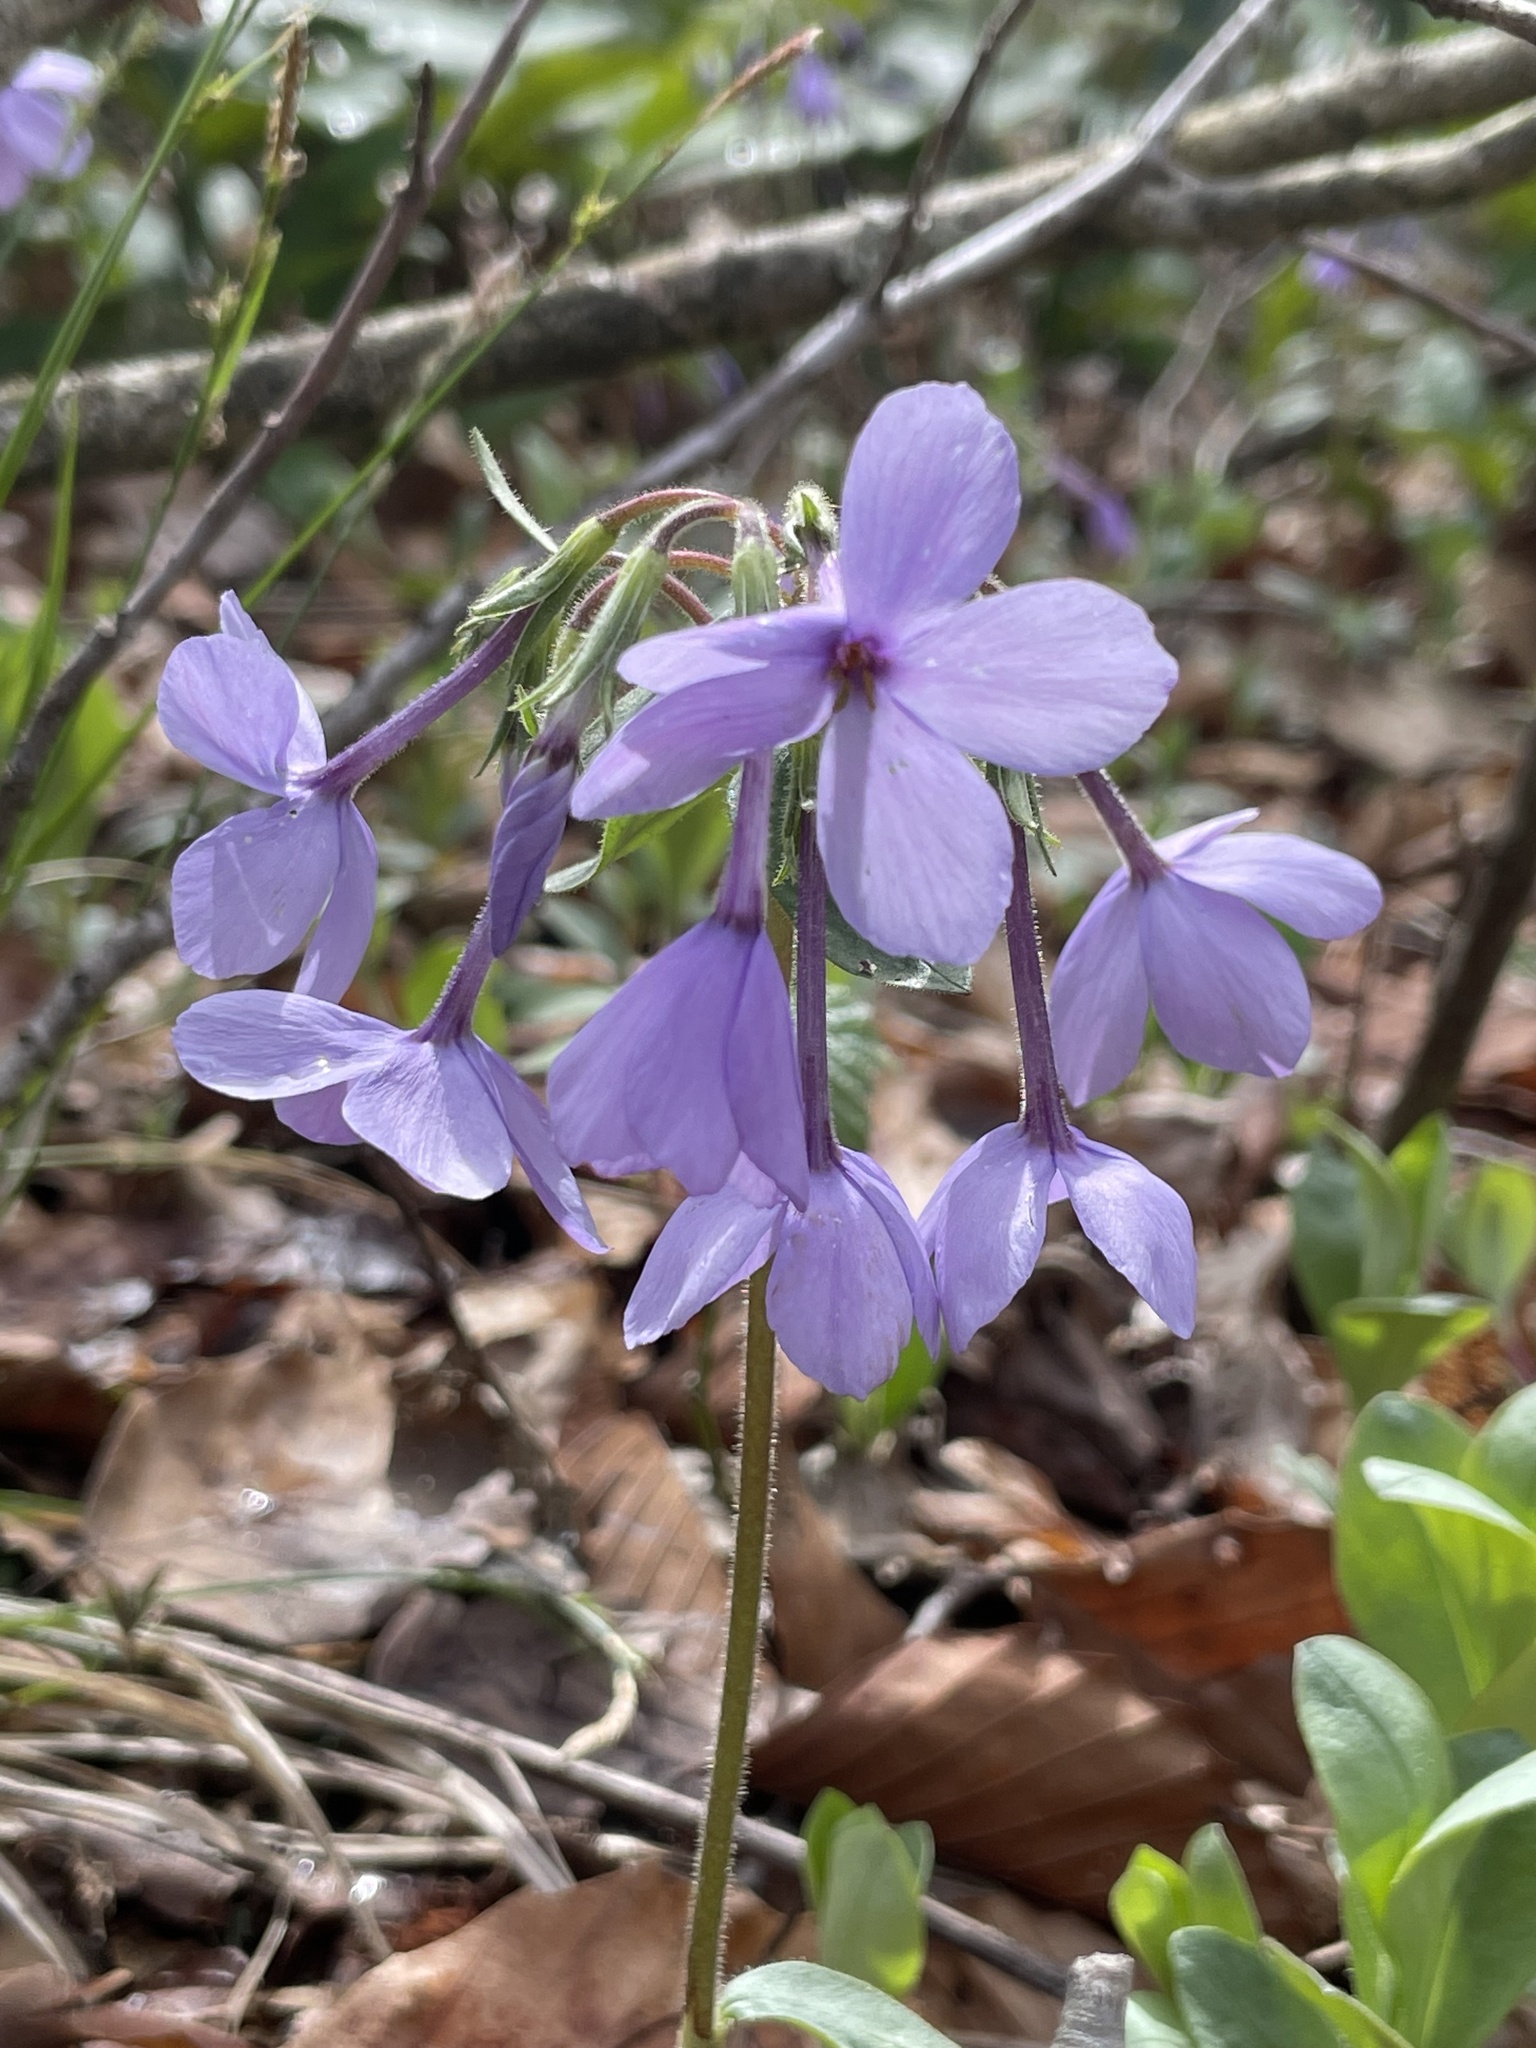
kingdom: Plantae
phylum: Tracheophyta
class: Magnoliopsida
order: Ericales
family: Polemoniaceae
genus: Phlox
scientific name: Phlox stolonifera
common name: Creeping phlox
